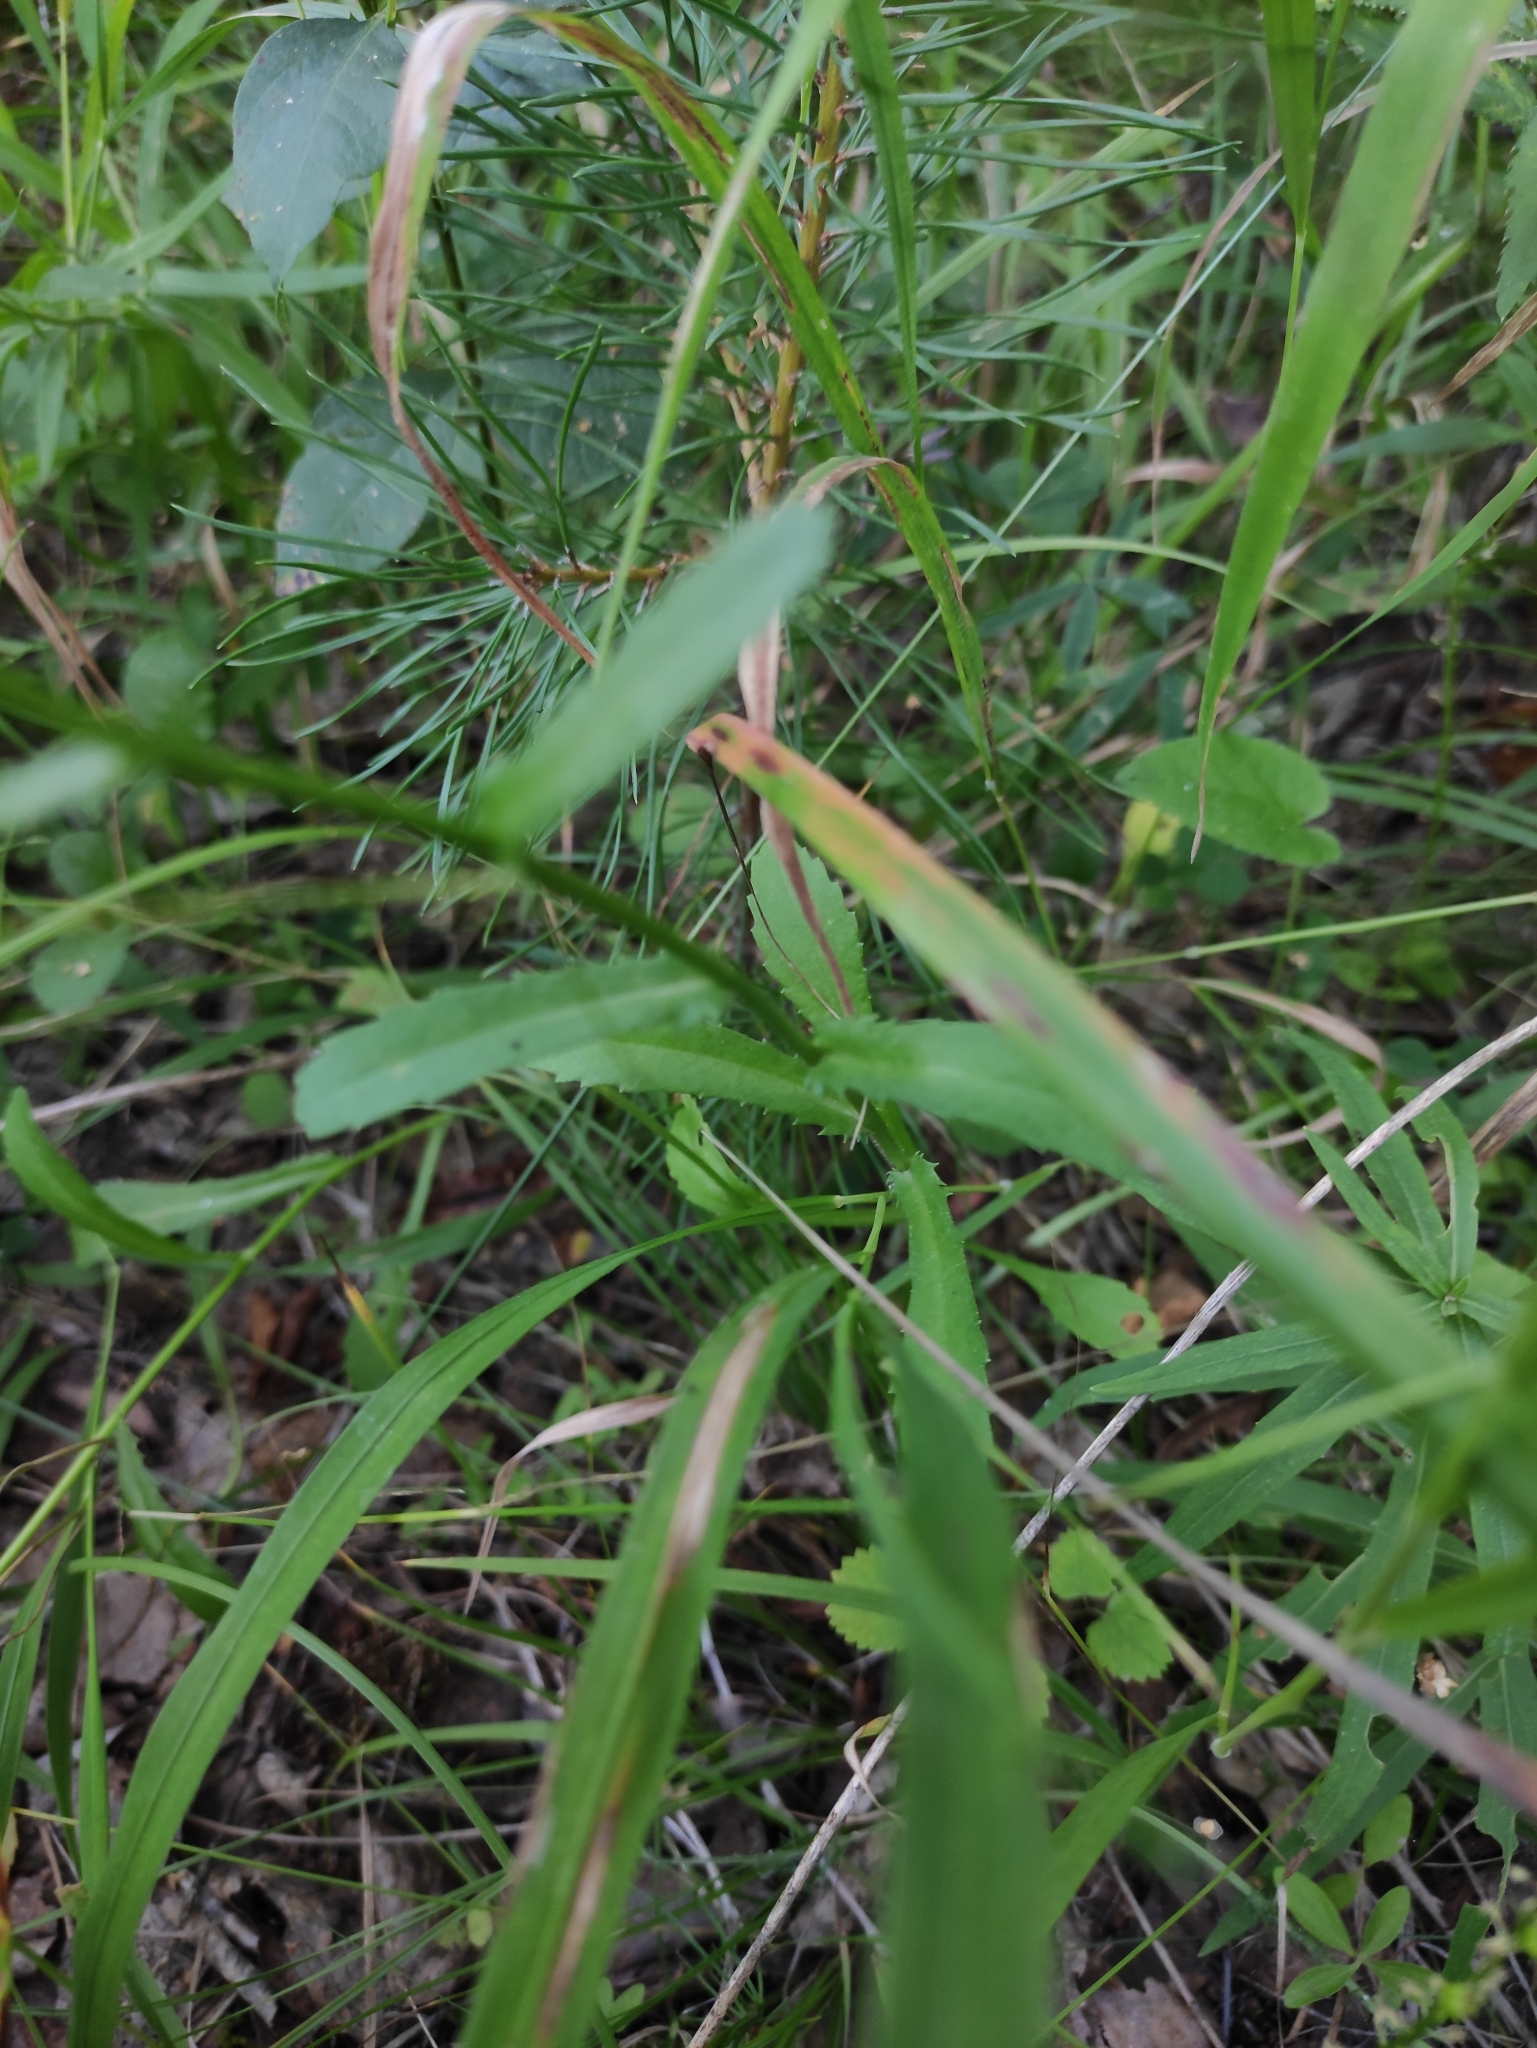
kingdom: Plantae
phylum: Tracheophyta
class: Magnoliopsida
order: Asterales
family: Asteraceae
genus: Leucanthemum
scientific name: Leucanthemum ircutianum
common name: Daisy
